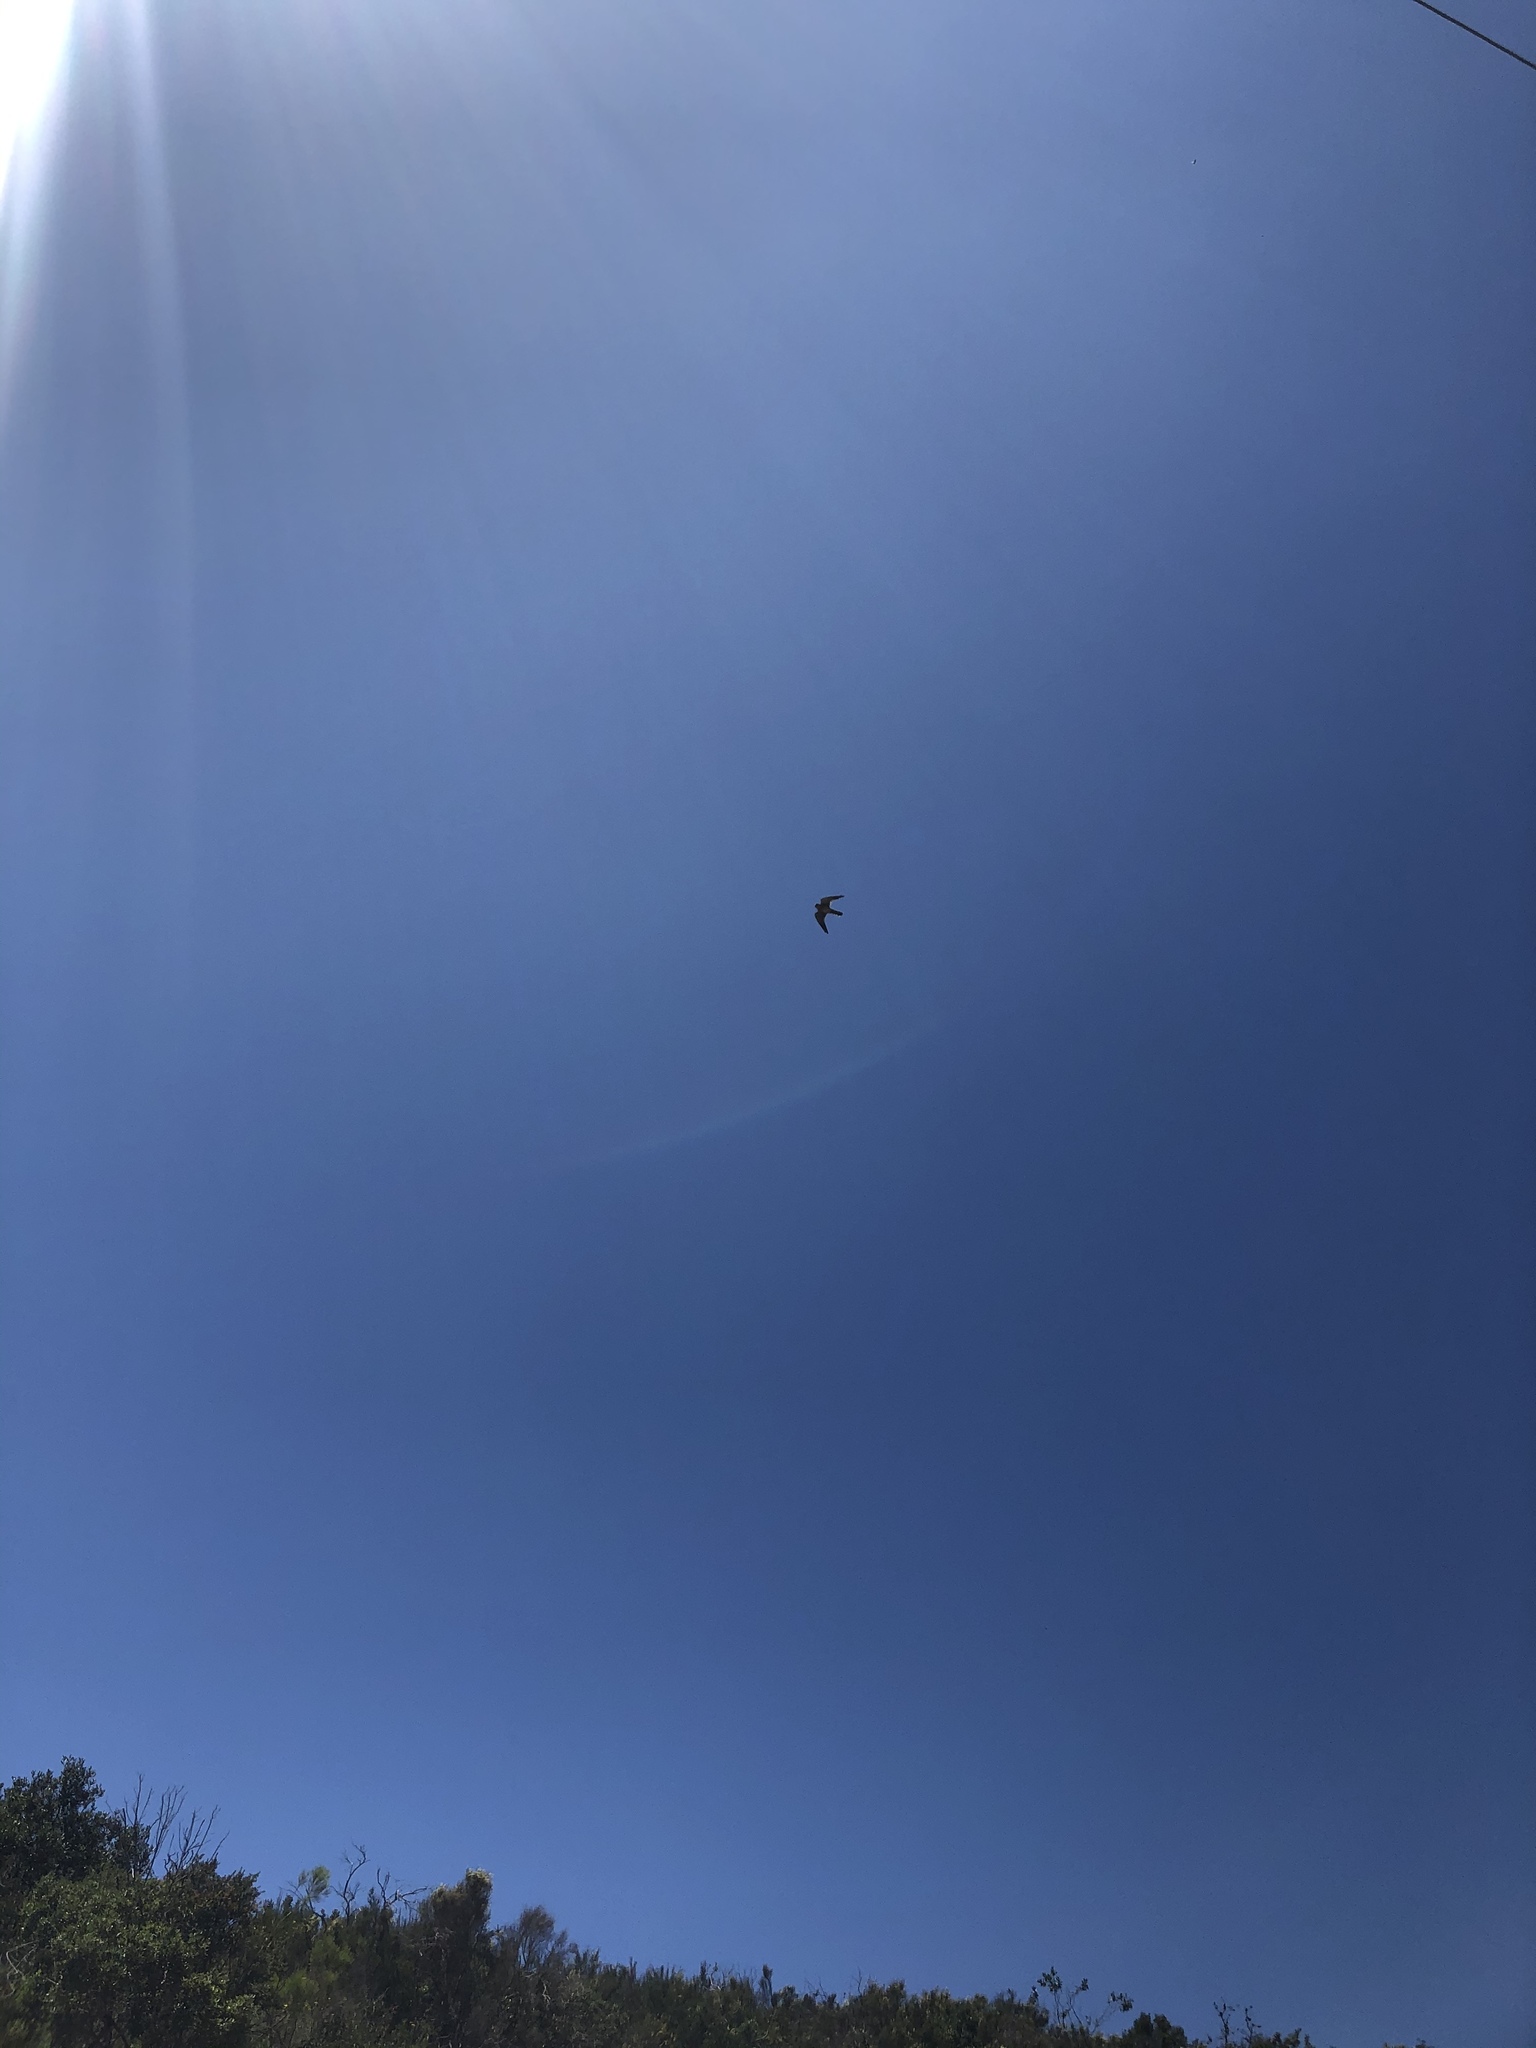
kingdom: Animalia
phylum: Chordata
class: Aves
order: Falconiformes
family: Falconidae
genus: Falco
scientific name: Falco sparverius
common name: American kestrel
